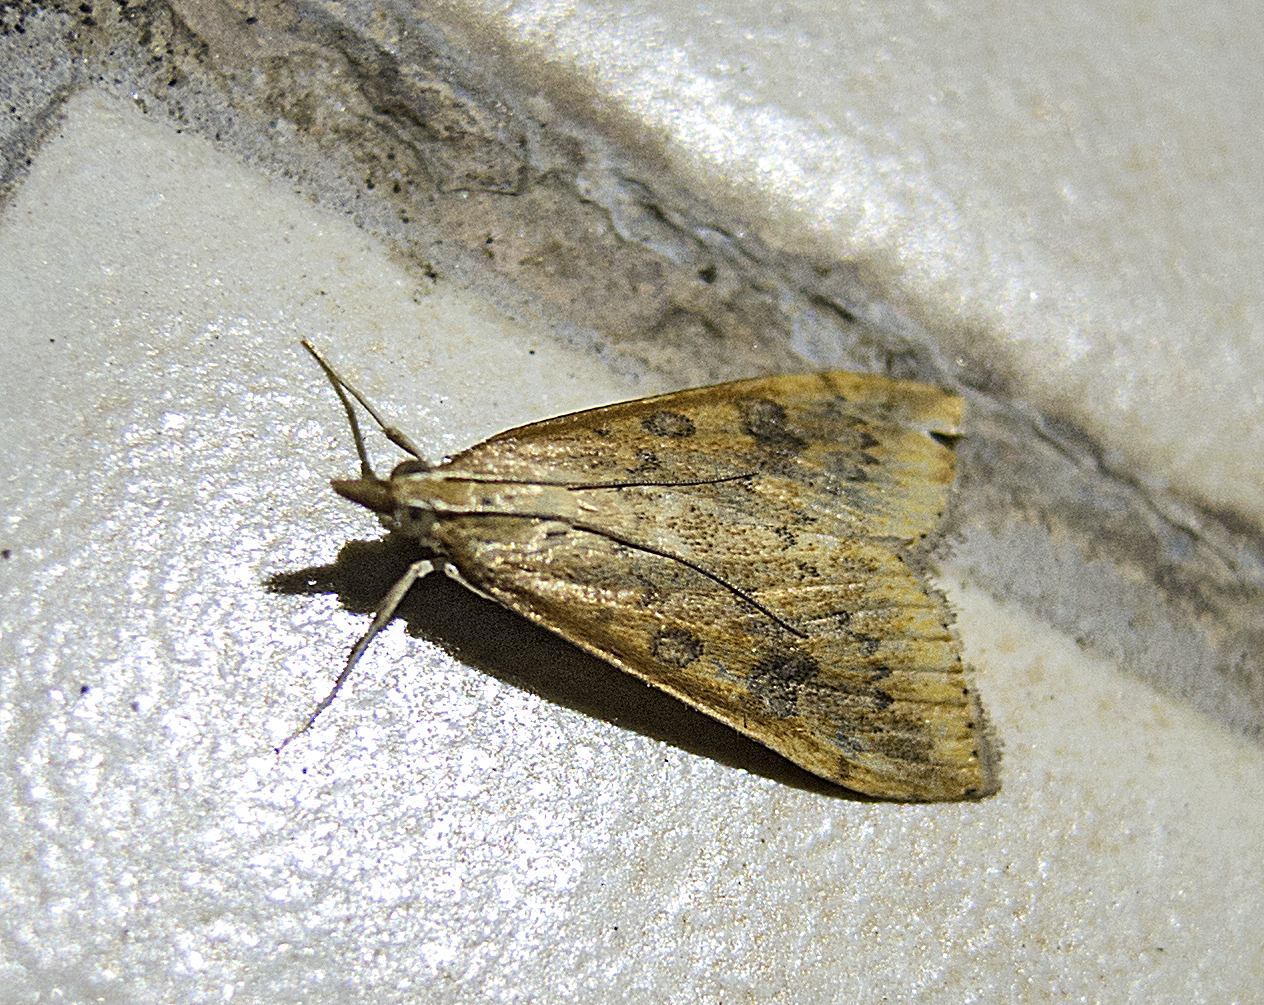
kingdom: Animalia
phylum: Arthropoda
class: Insecta
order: Lepidoptera
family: Crambidae
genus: Udea
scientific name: Udea ferrugalis
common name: Rusty dot
